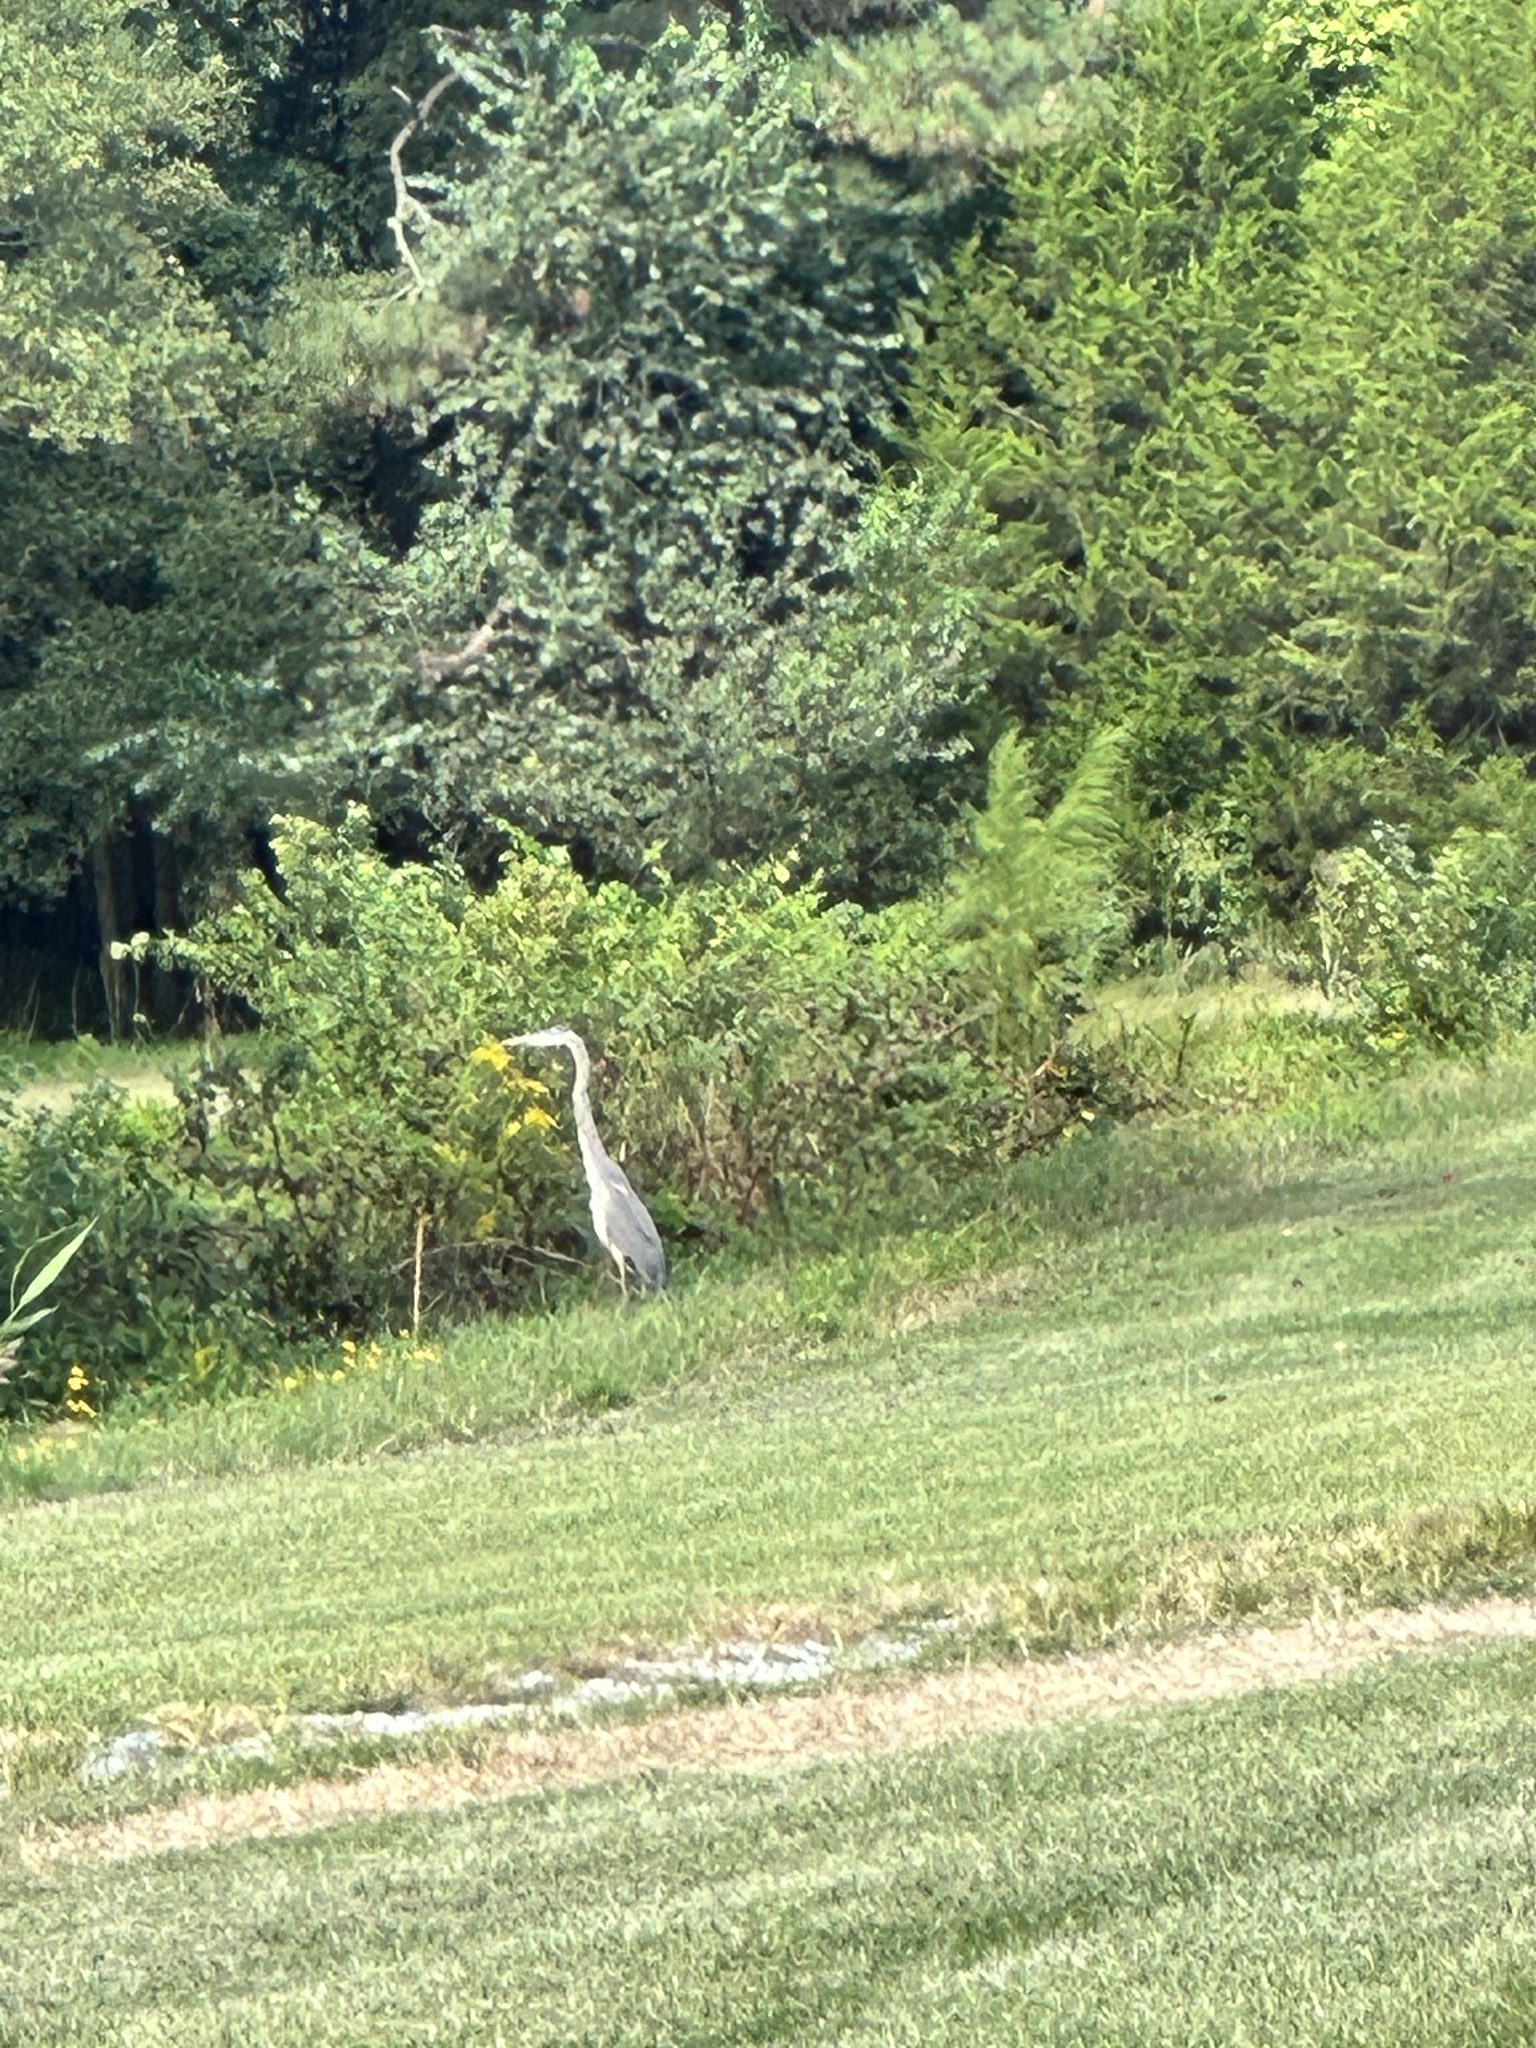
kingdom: Animalia
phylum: Chordata
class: Aves
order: Pelecaniformes
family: Ardeidae
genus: Ardea
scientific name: Ardea herodias
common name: Great blue heron
